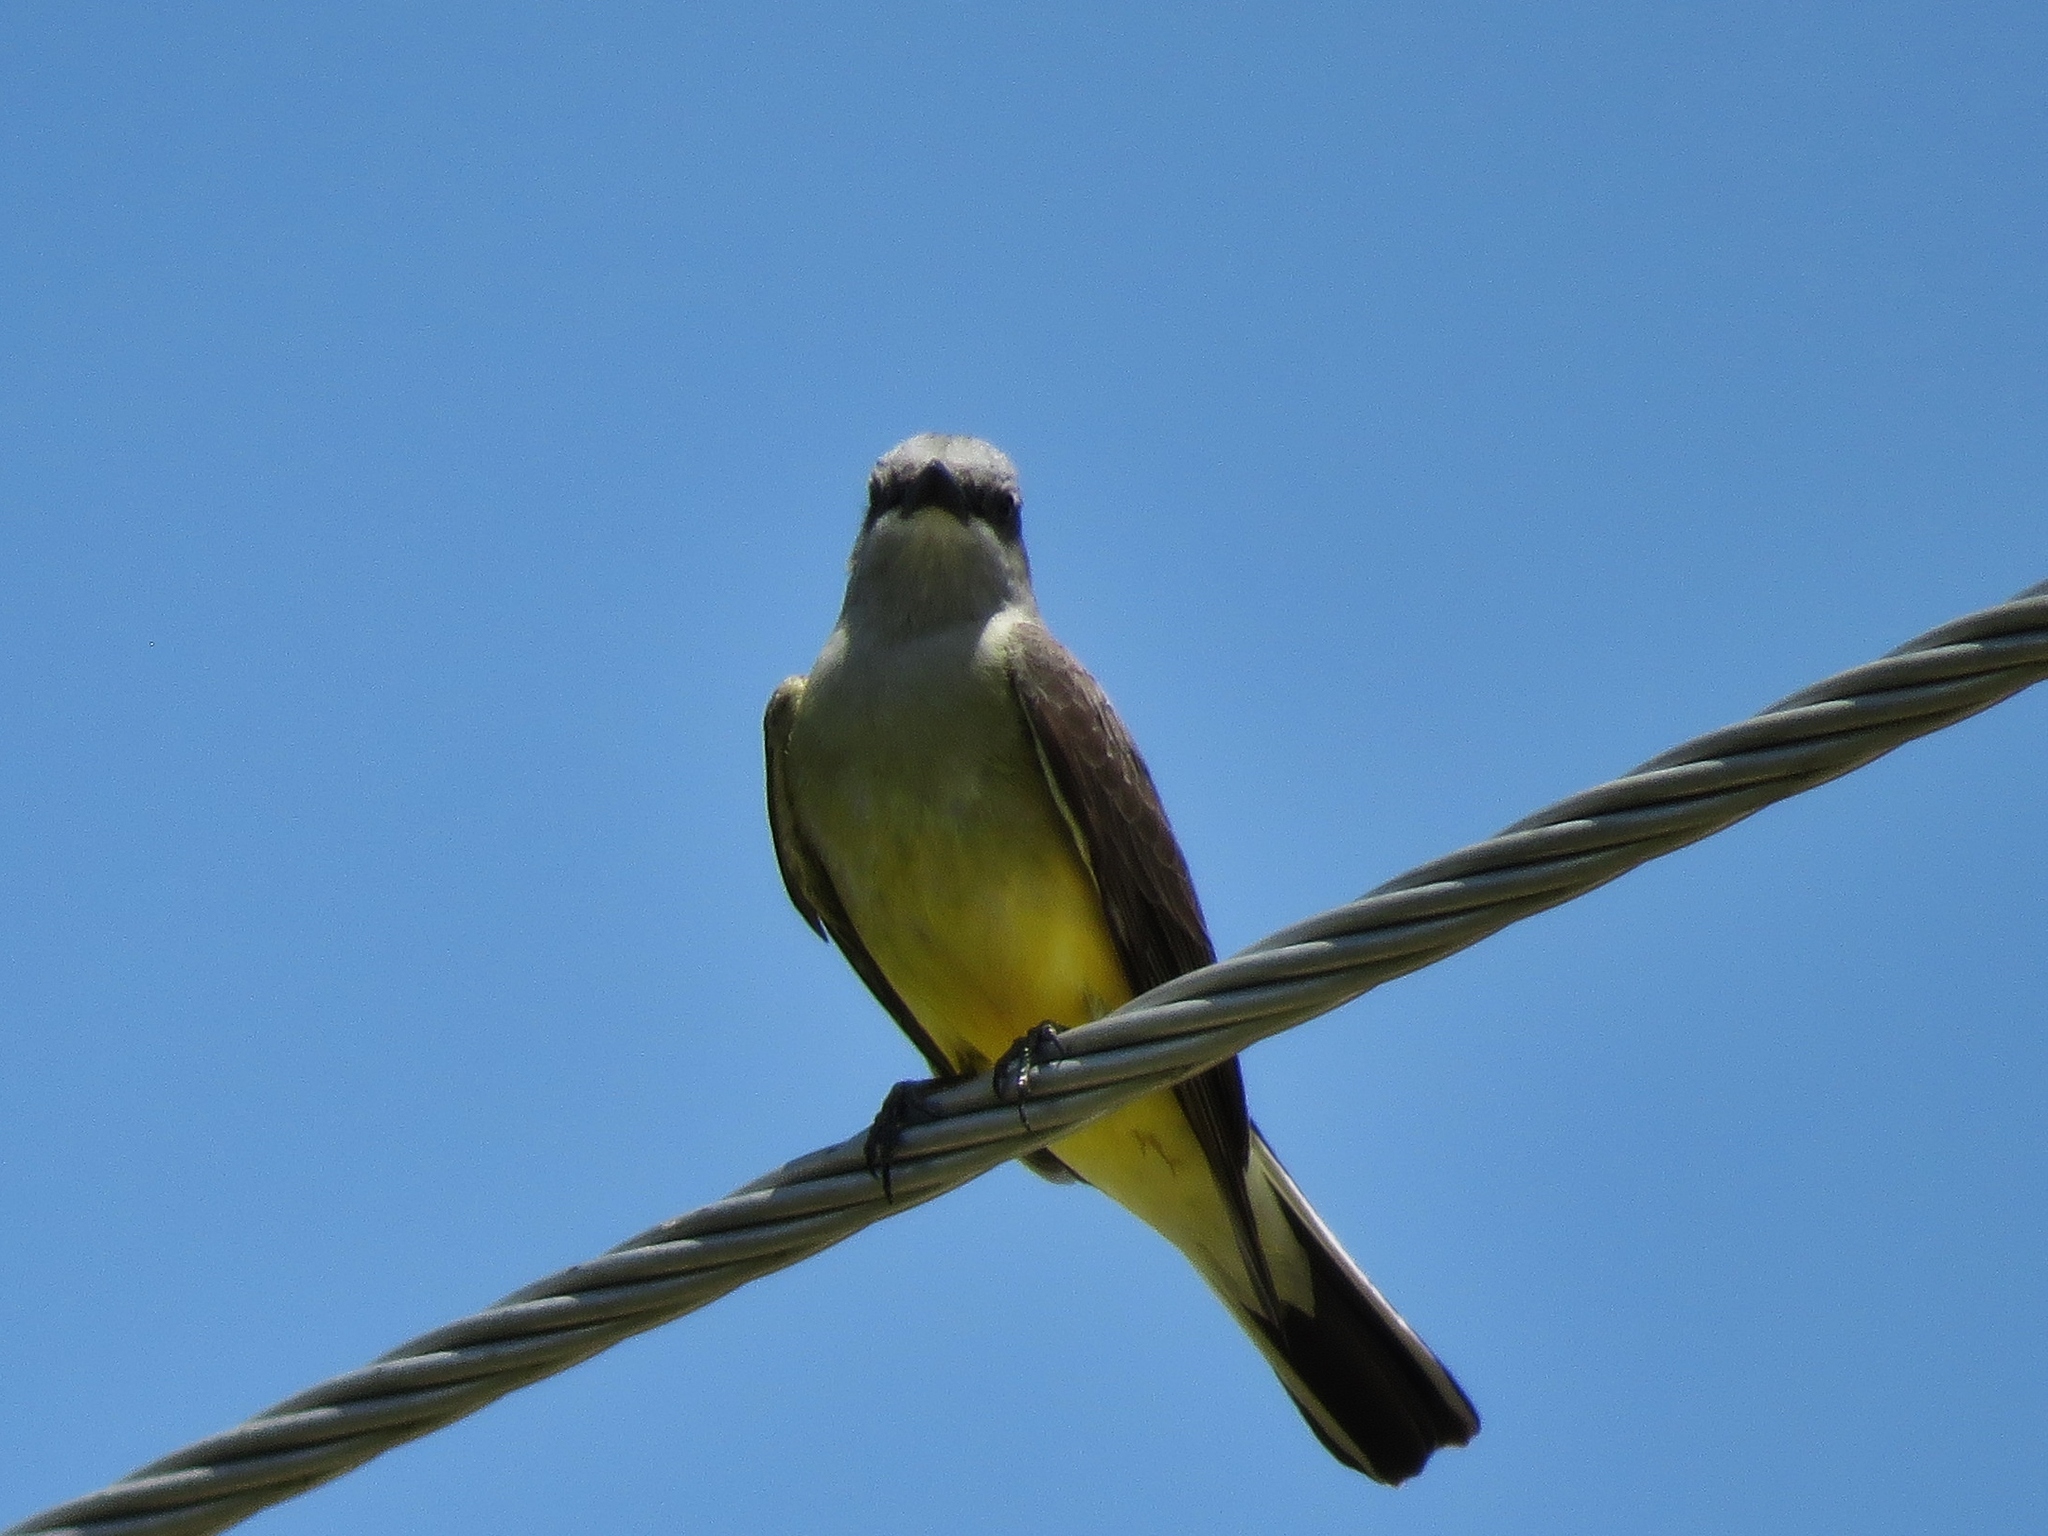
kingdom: Animalia
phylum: Chordata
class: Aves
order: Passeriformes
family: Tyrannidae
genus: Tyrannus
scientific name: Tyrannus verticalis
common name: Western kingbird
